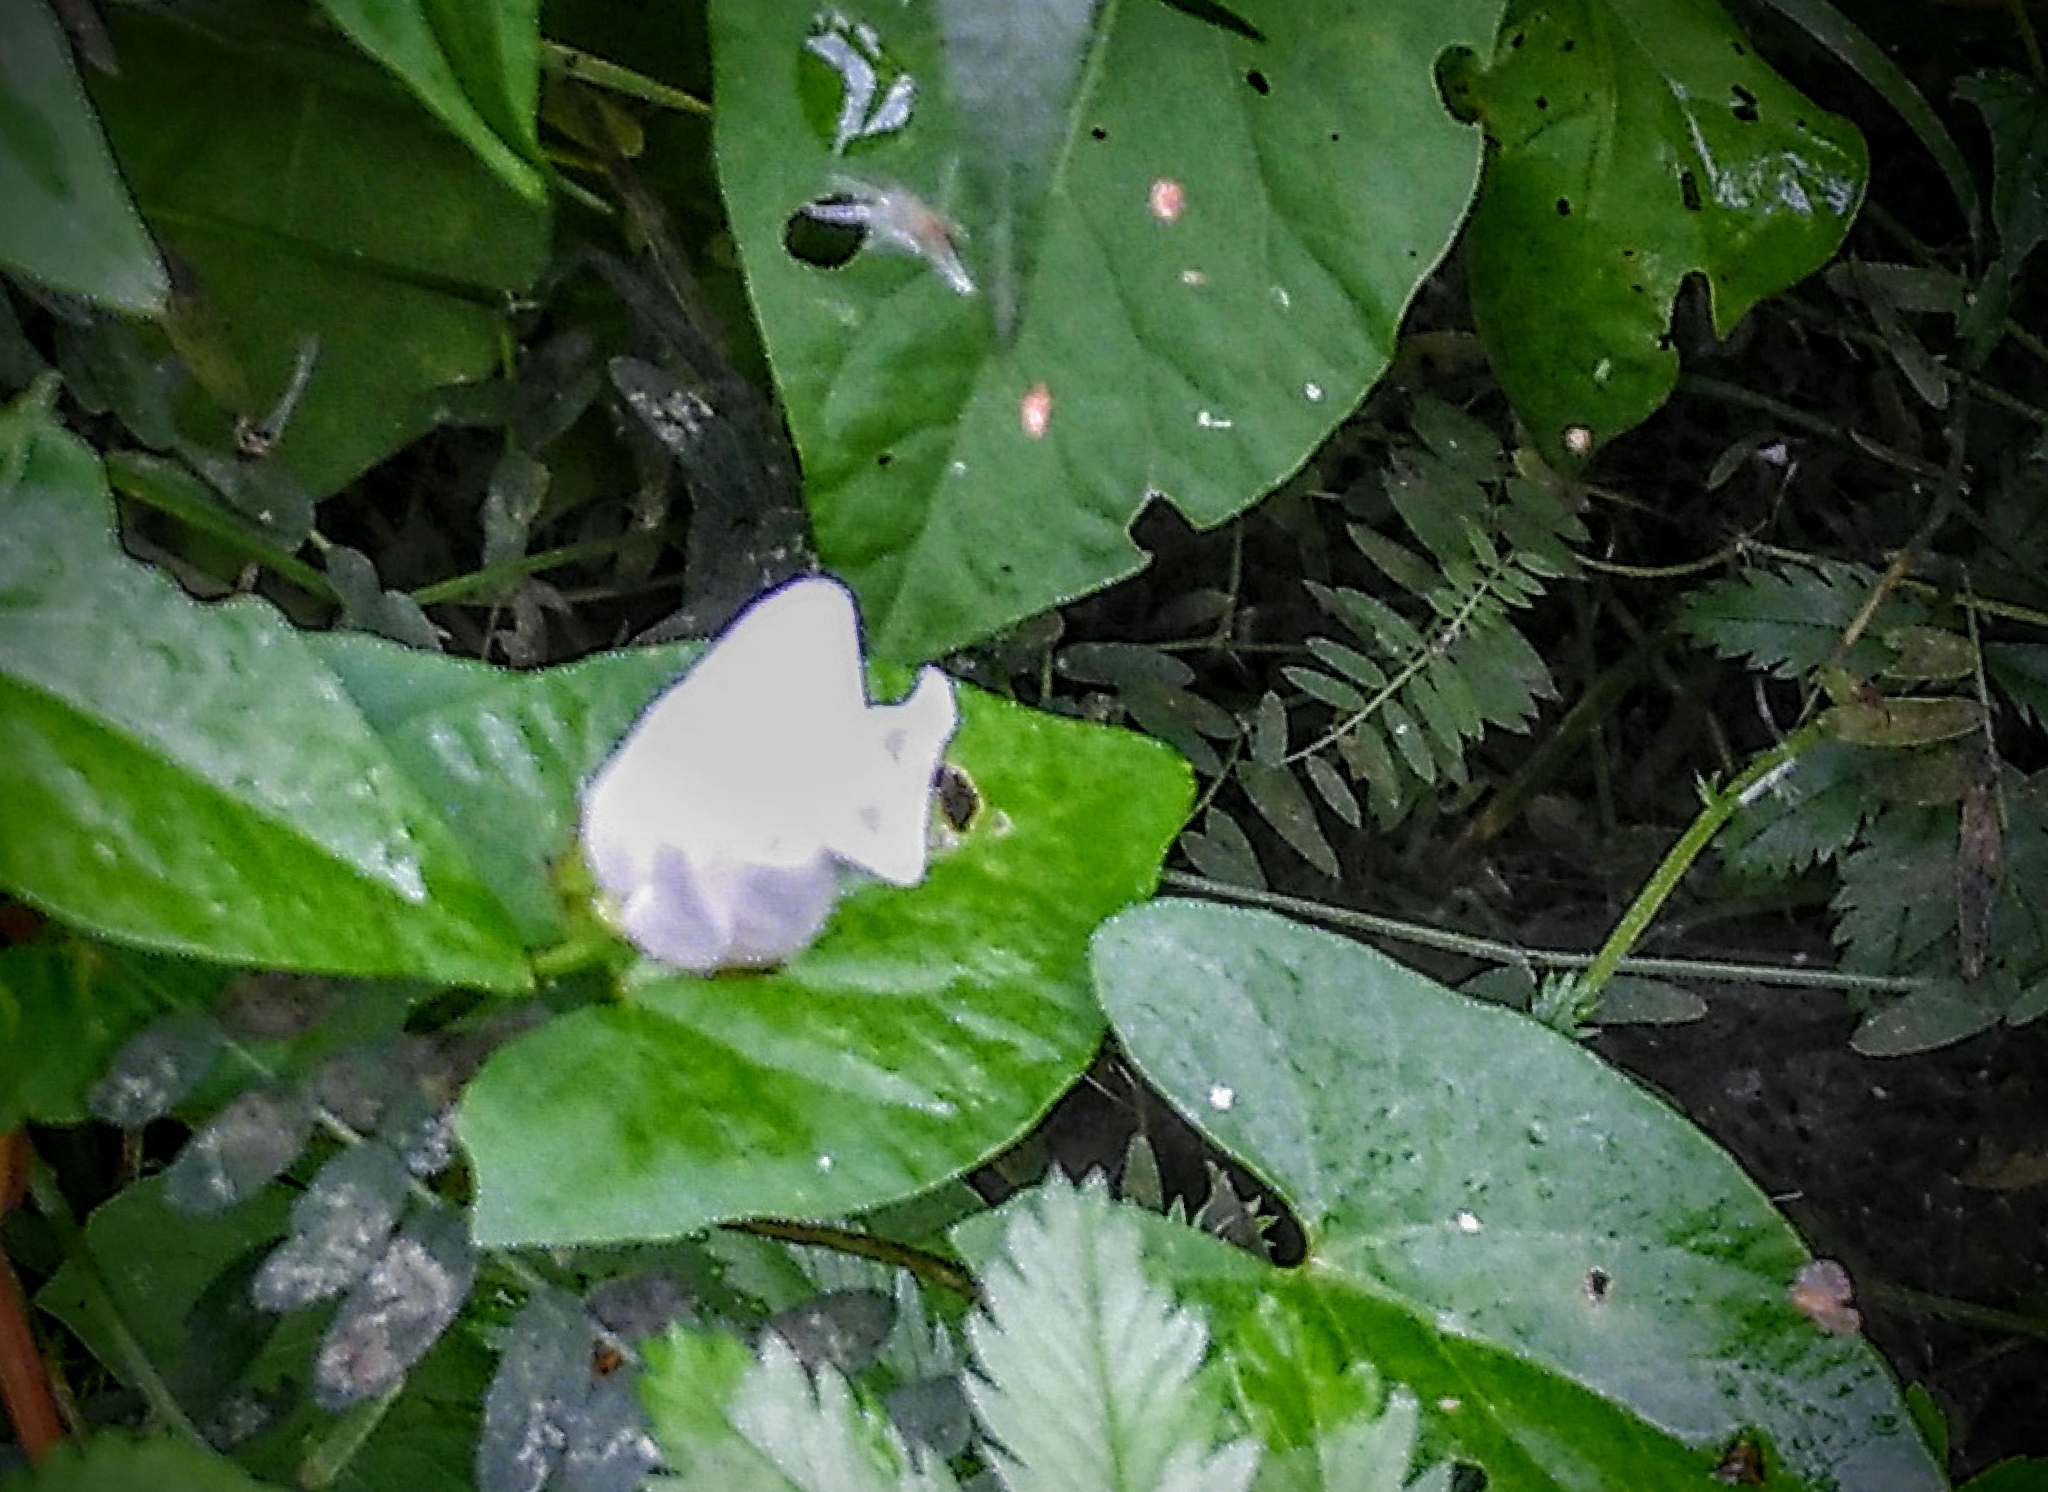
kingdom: Plantae
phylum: Tracheophyta
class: Magnoliopsida
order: Solanales
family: Convolvulaceae
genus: Calystegia
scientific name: Calystegia sepium
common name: Hedge bindweed
